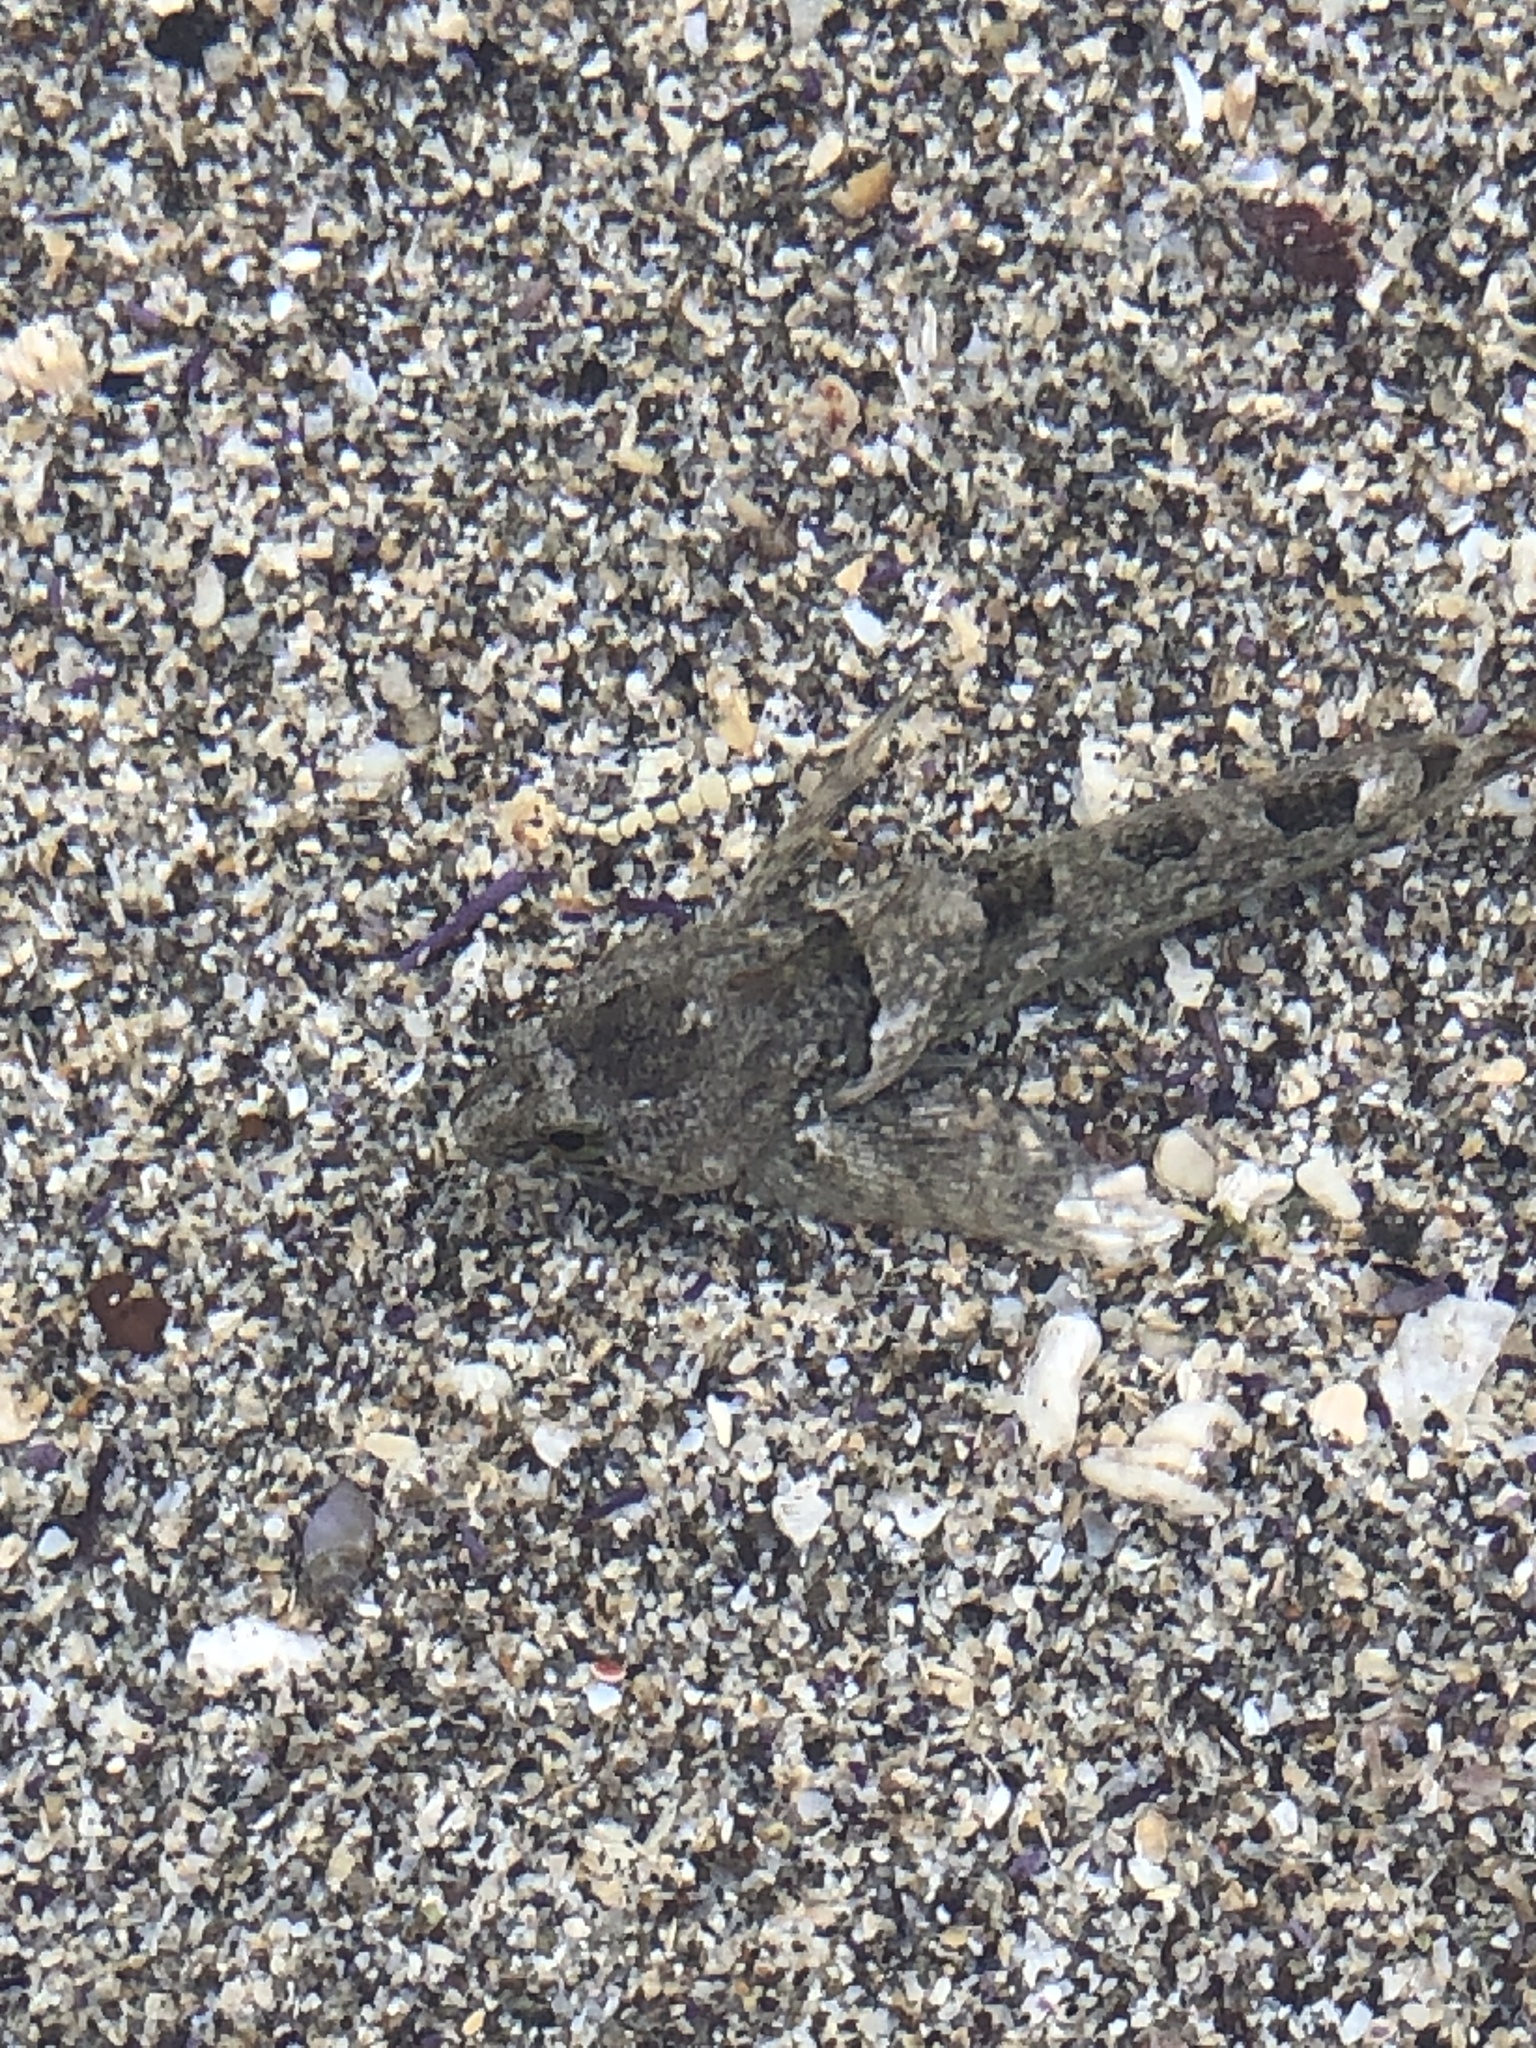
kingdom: Animalia
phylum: Chordata
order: Scorpaeniformes
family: Cottidae
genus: Oligocottus
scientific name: Oligocottus maculosus
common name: Tidepool sculpin
